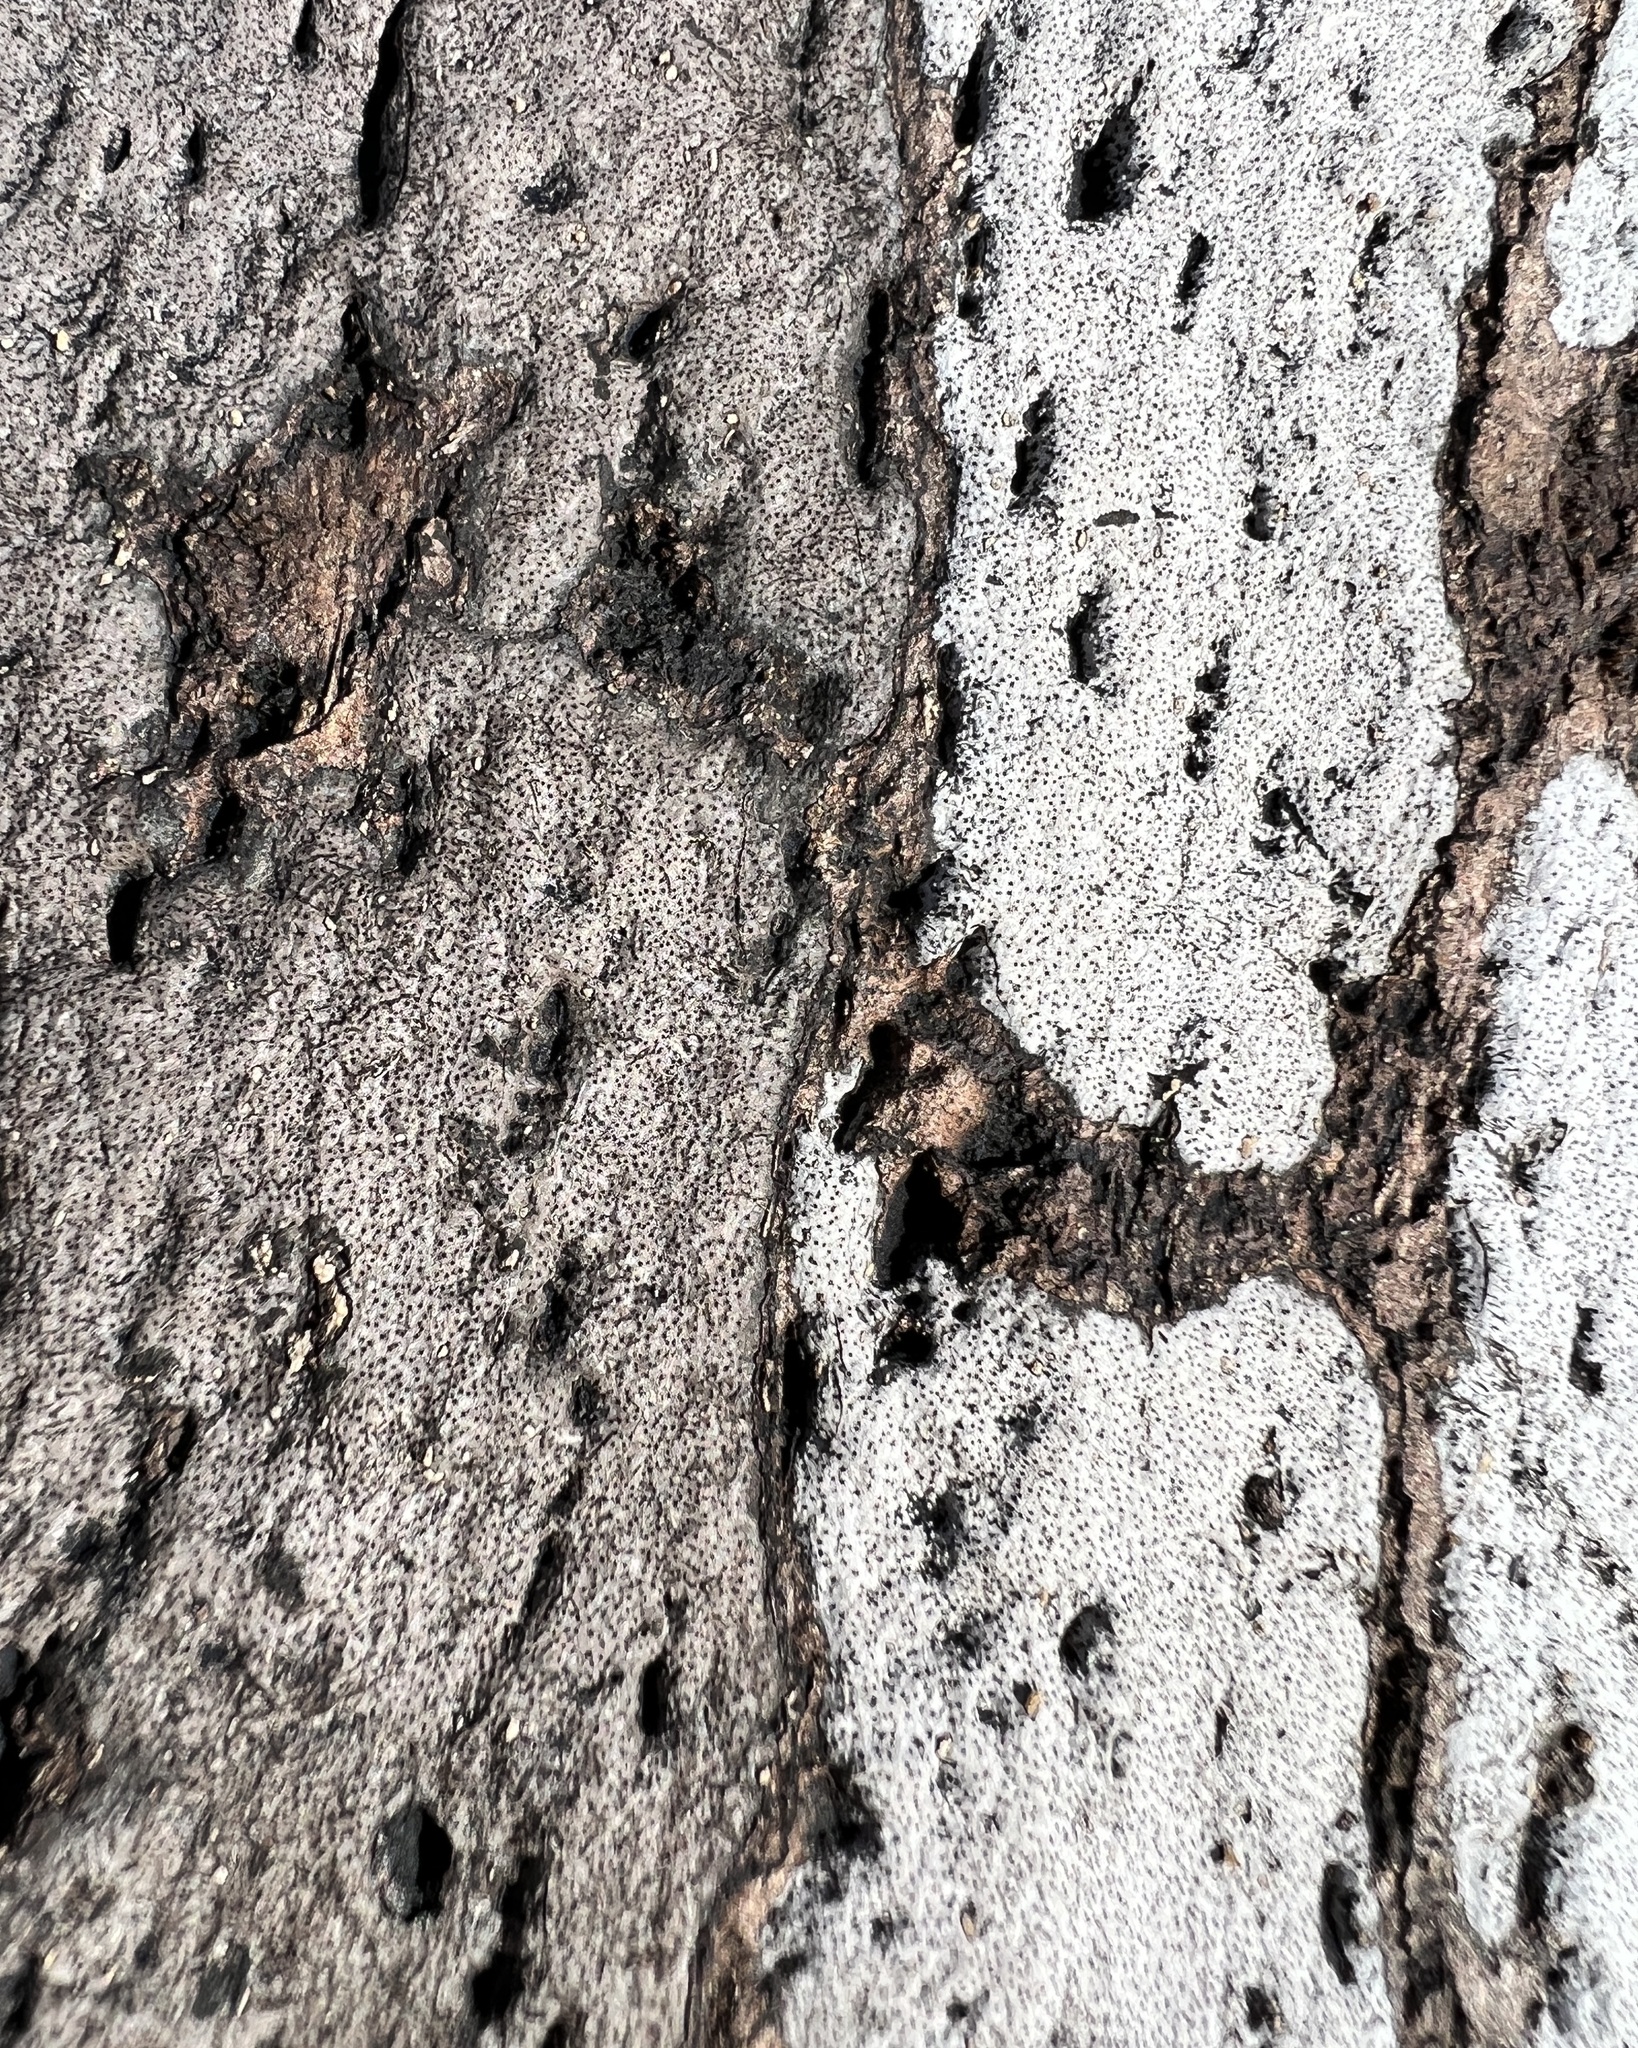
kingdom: Fungi
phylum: Ascomycota
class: Sordariomycetes
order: Xylariales
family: Graphostromataceae
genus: Biscogniauxia
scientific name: Biscogniauxia atropunctata
